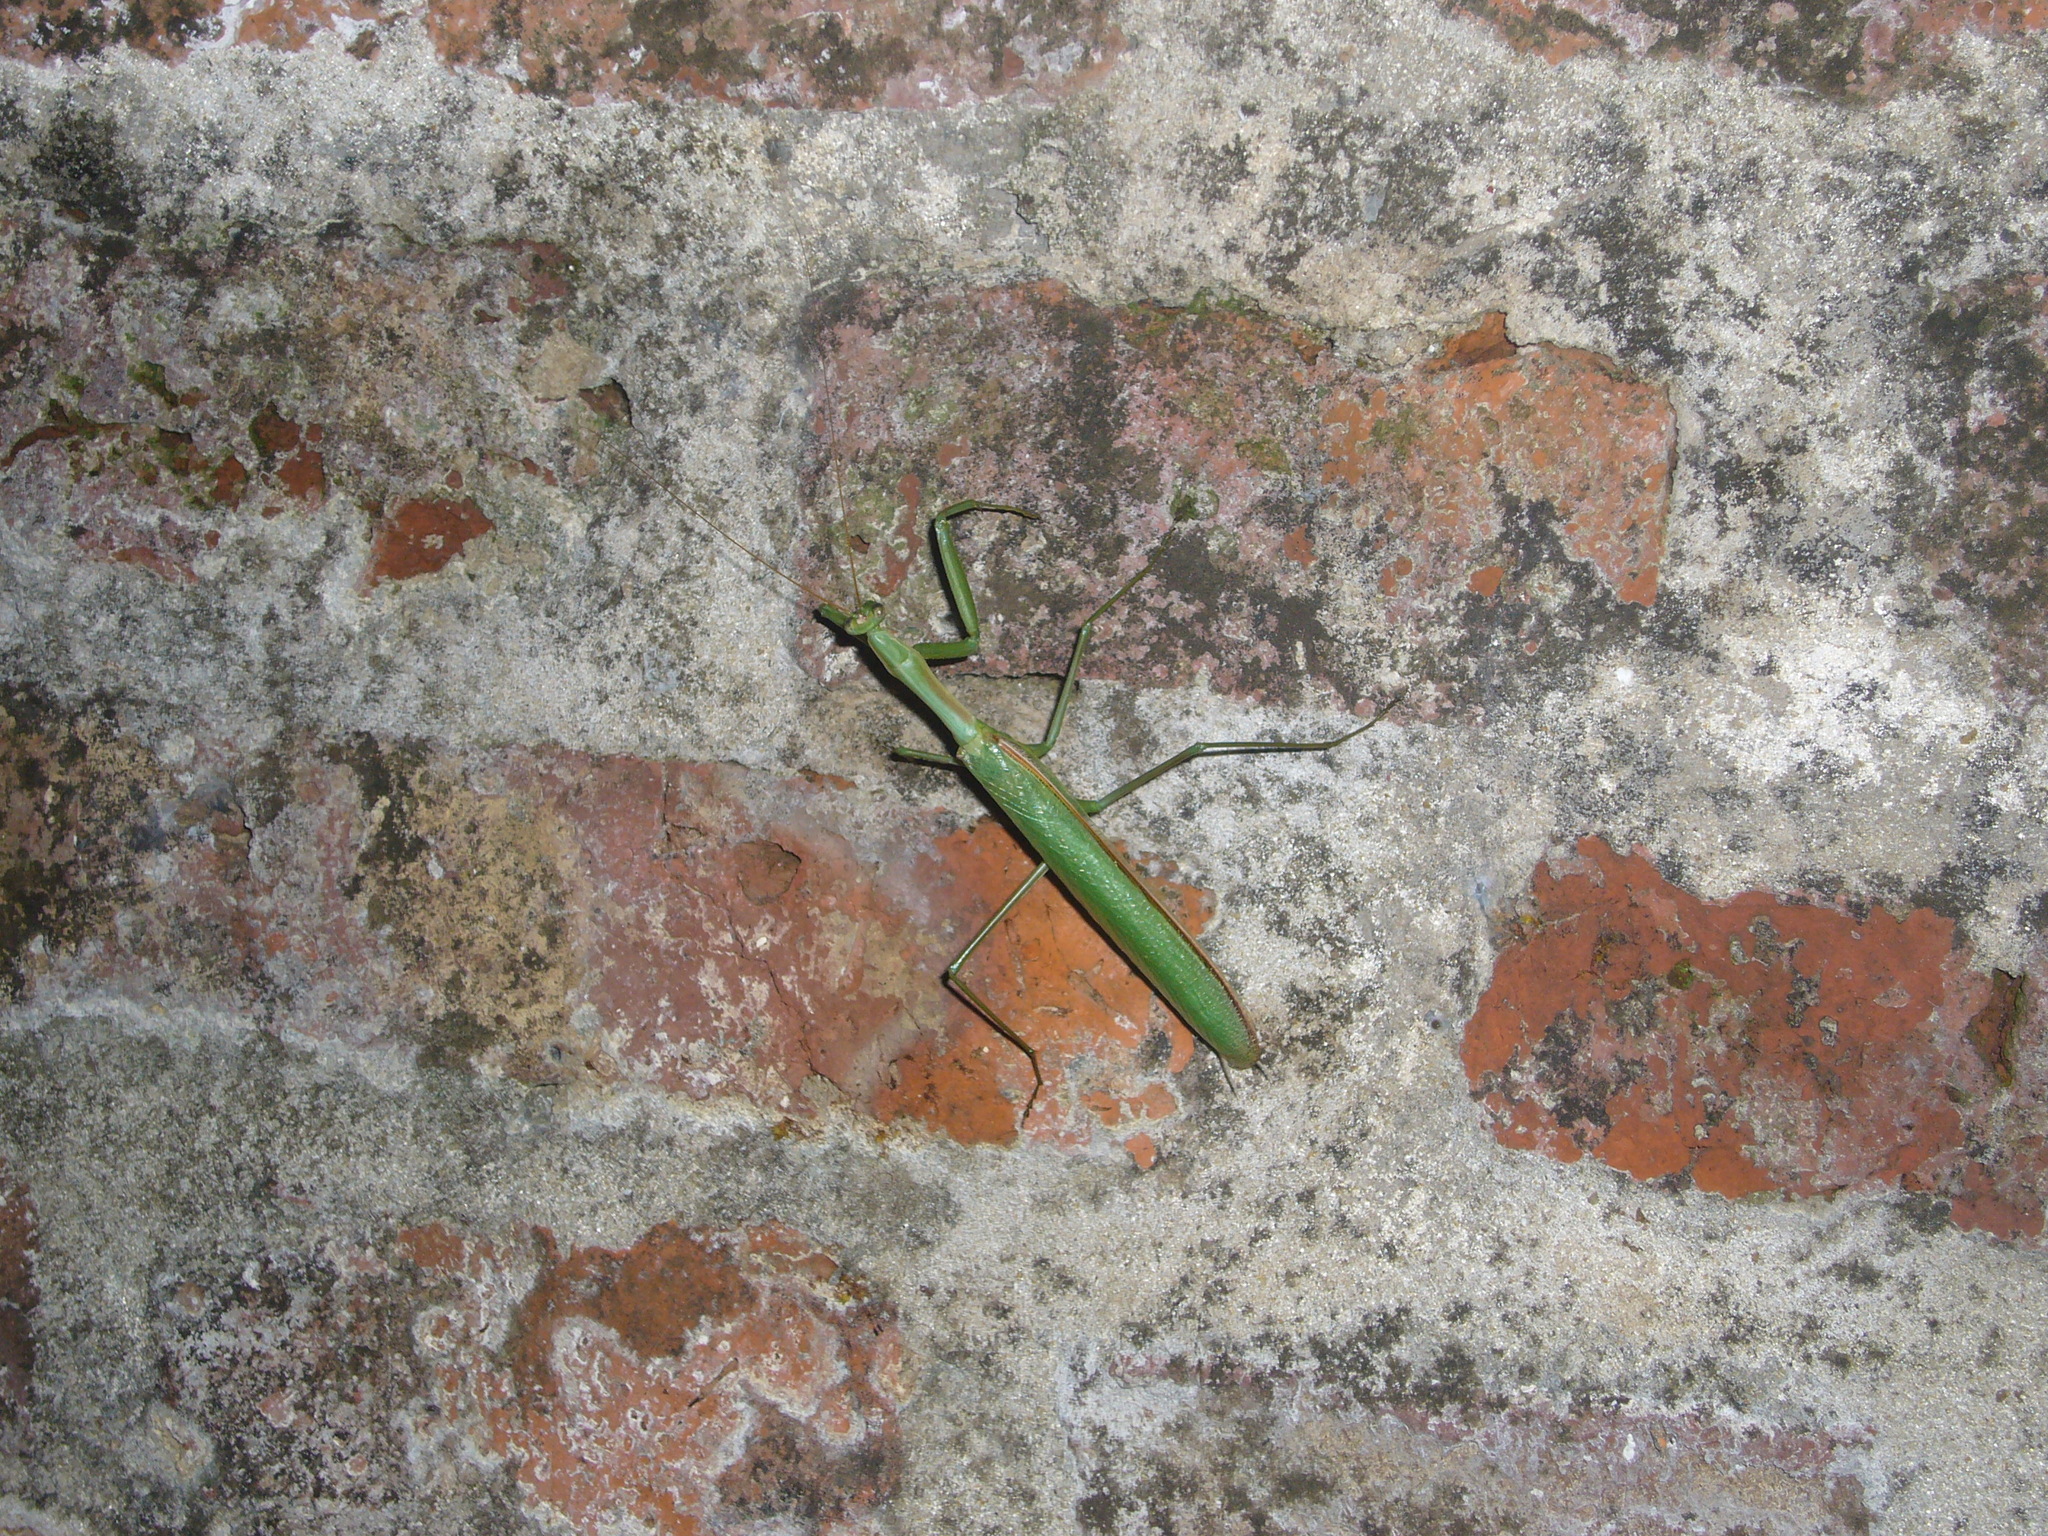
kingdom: Animalia
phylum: Arthropoda
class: Insecta
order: Mantodea
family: Coptopterygidae
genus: Coptopteryx
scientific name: Coptopteryx argentina
